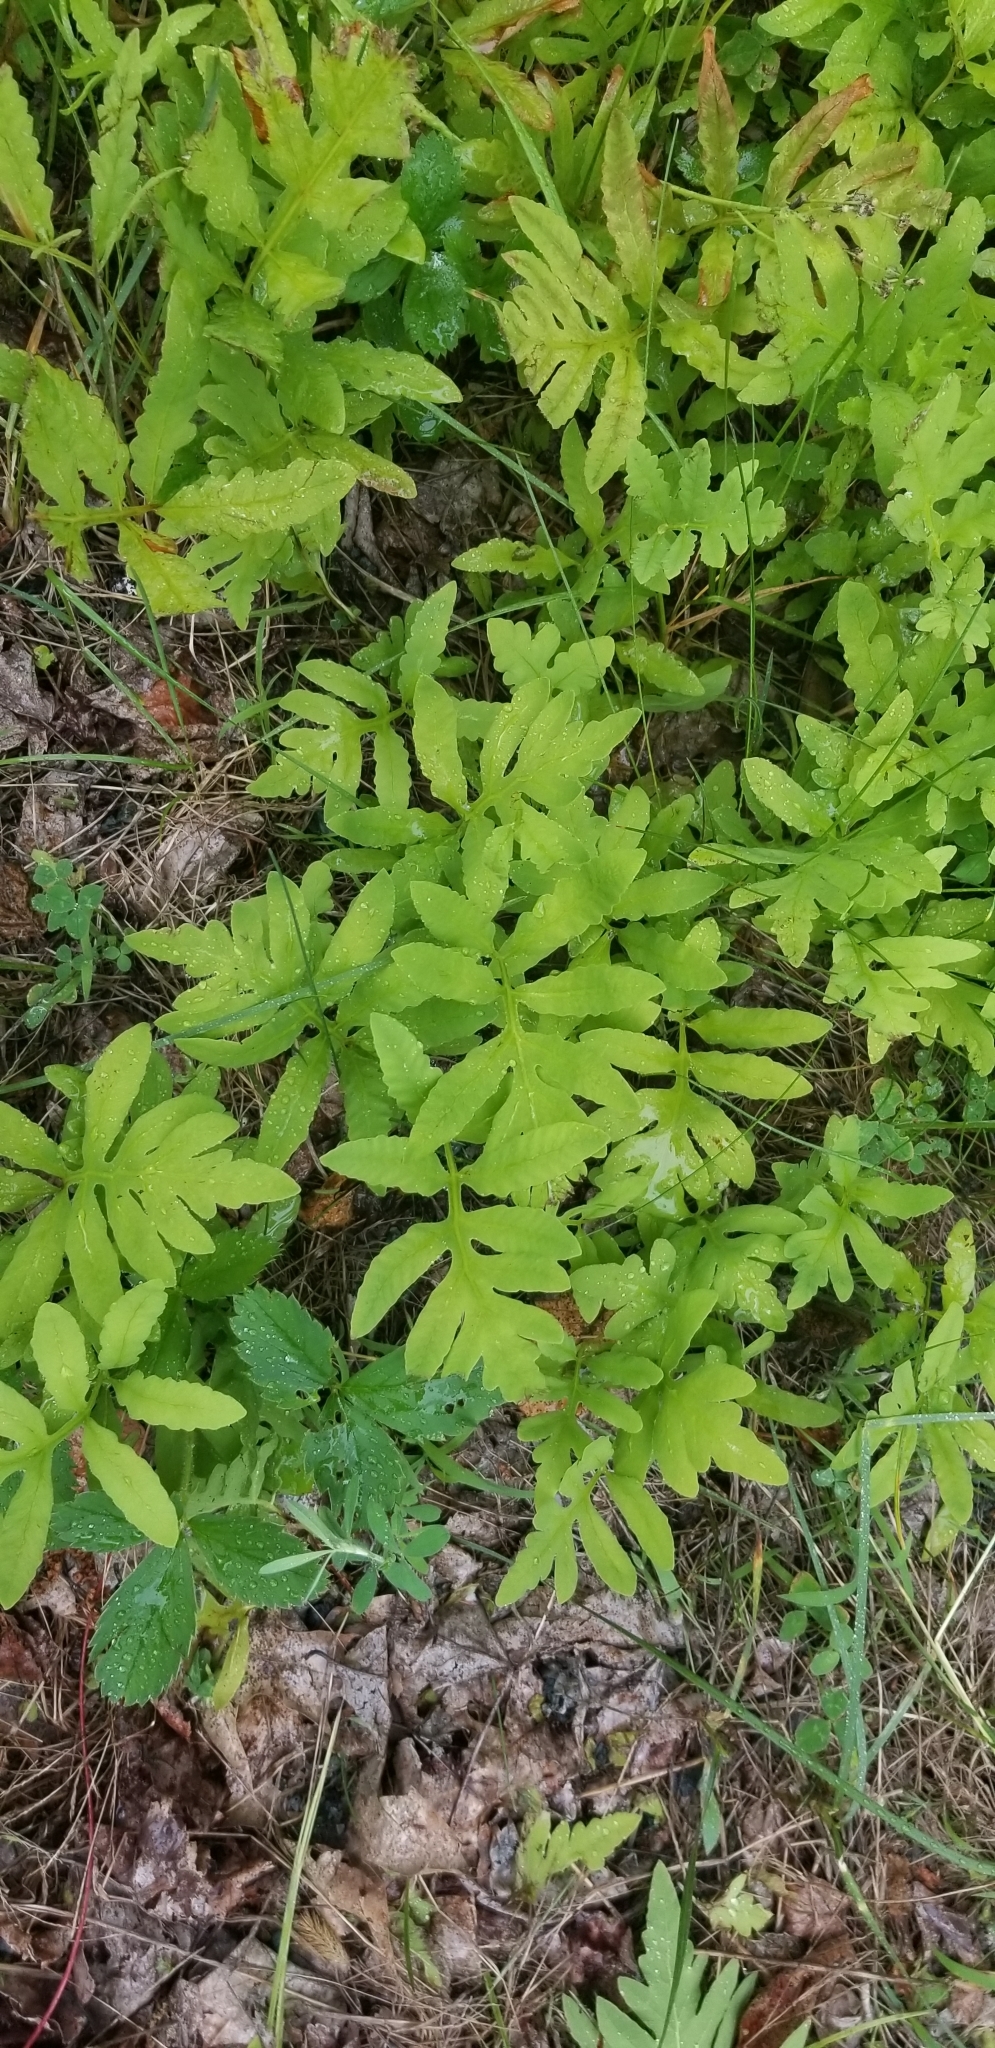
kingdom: Plantae
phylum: Tracheophyta
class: Polypodiopsida
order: Polypodiales
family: Onocleaceae
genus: Onoclea
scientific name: Onoclea sensibilis
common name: Sensitive fern
